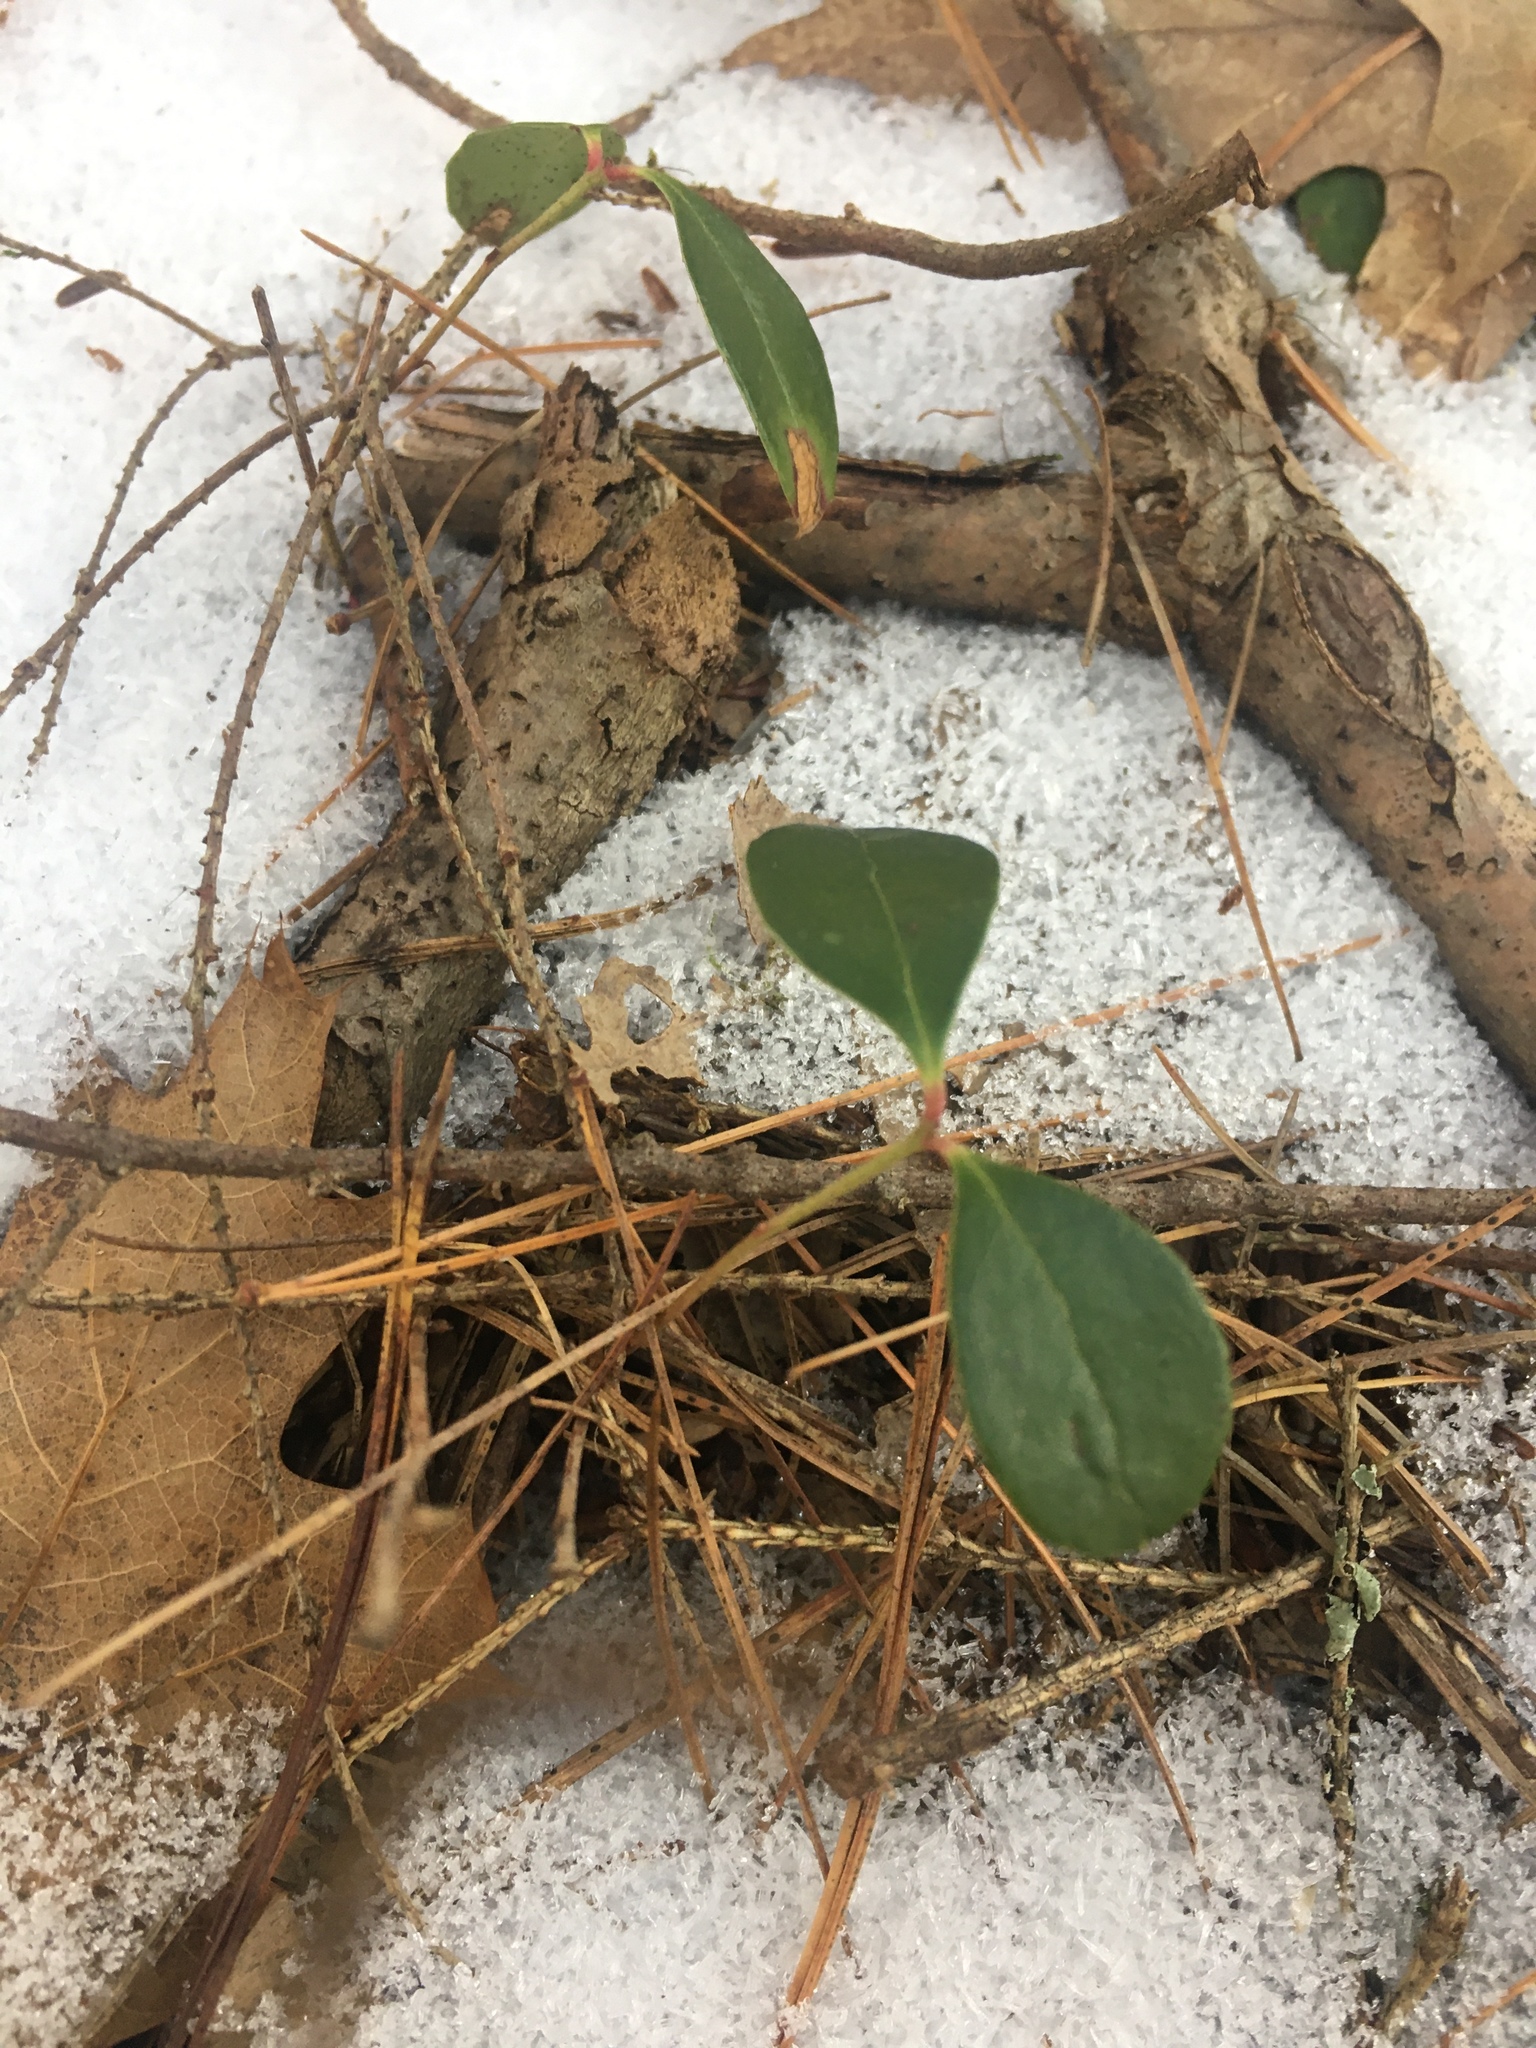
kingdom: Plantae
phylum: Tracheophyta
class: Magnoliopsida
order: Ericales
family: Ericaceae
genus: Gaultheria
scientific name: Gaultheria procumbens
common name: Checkerberry
